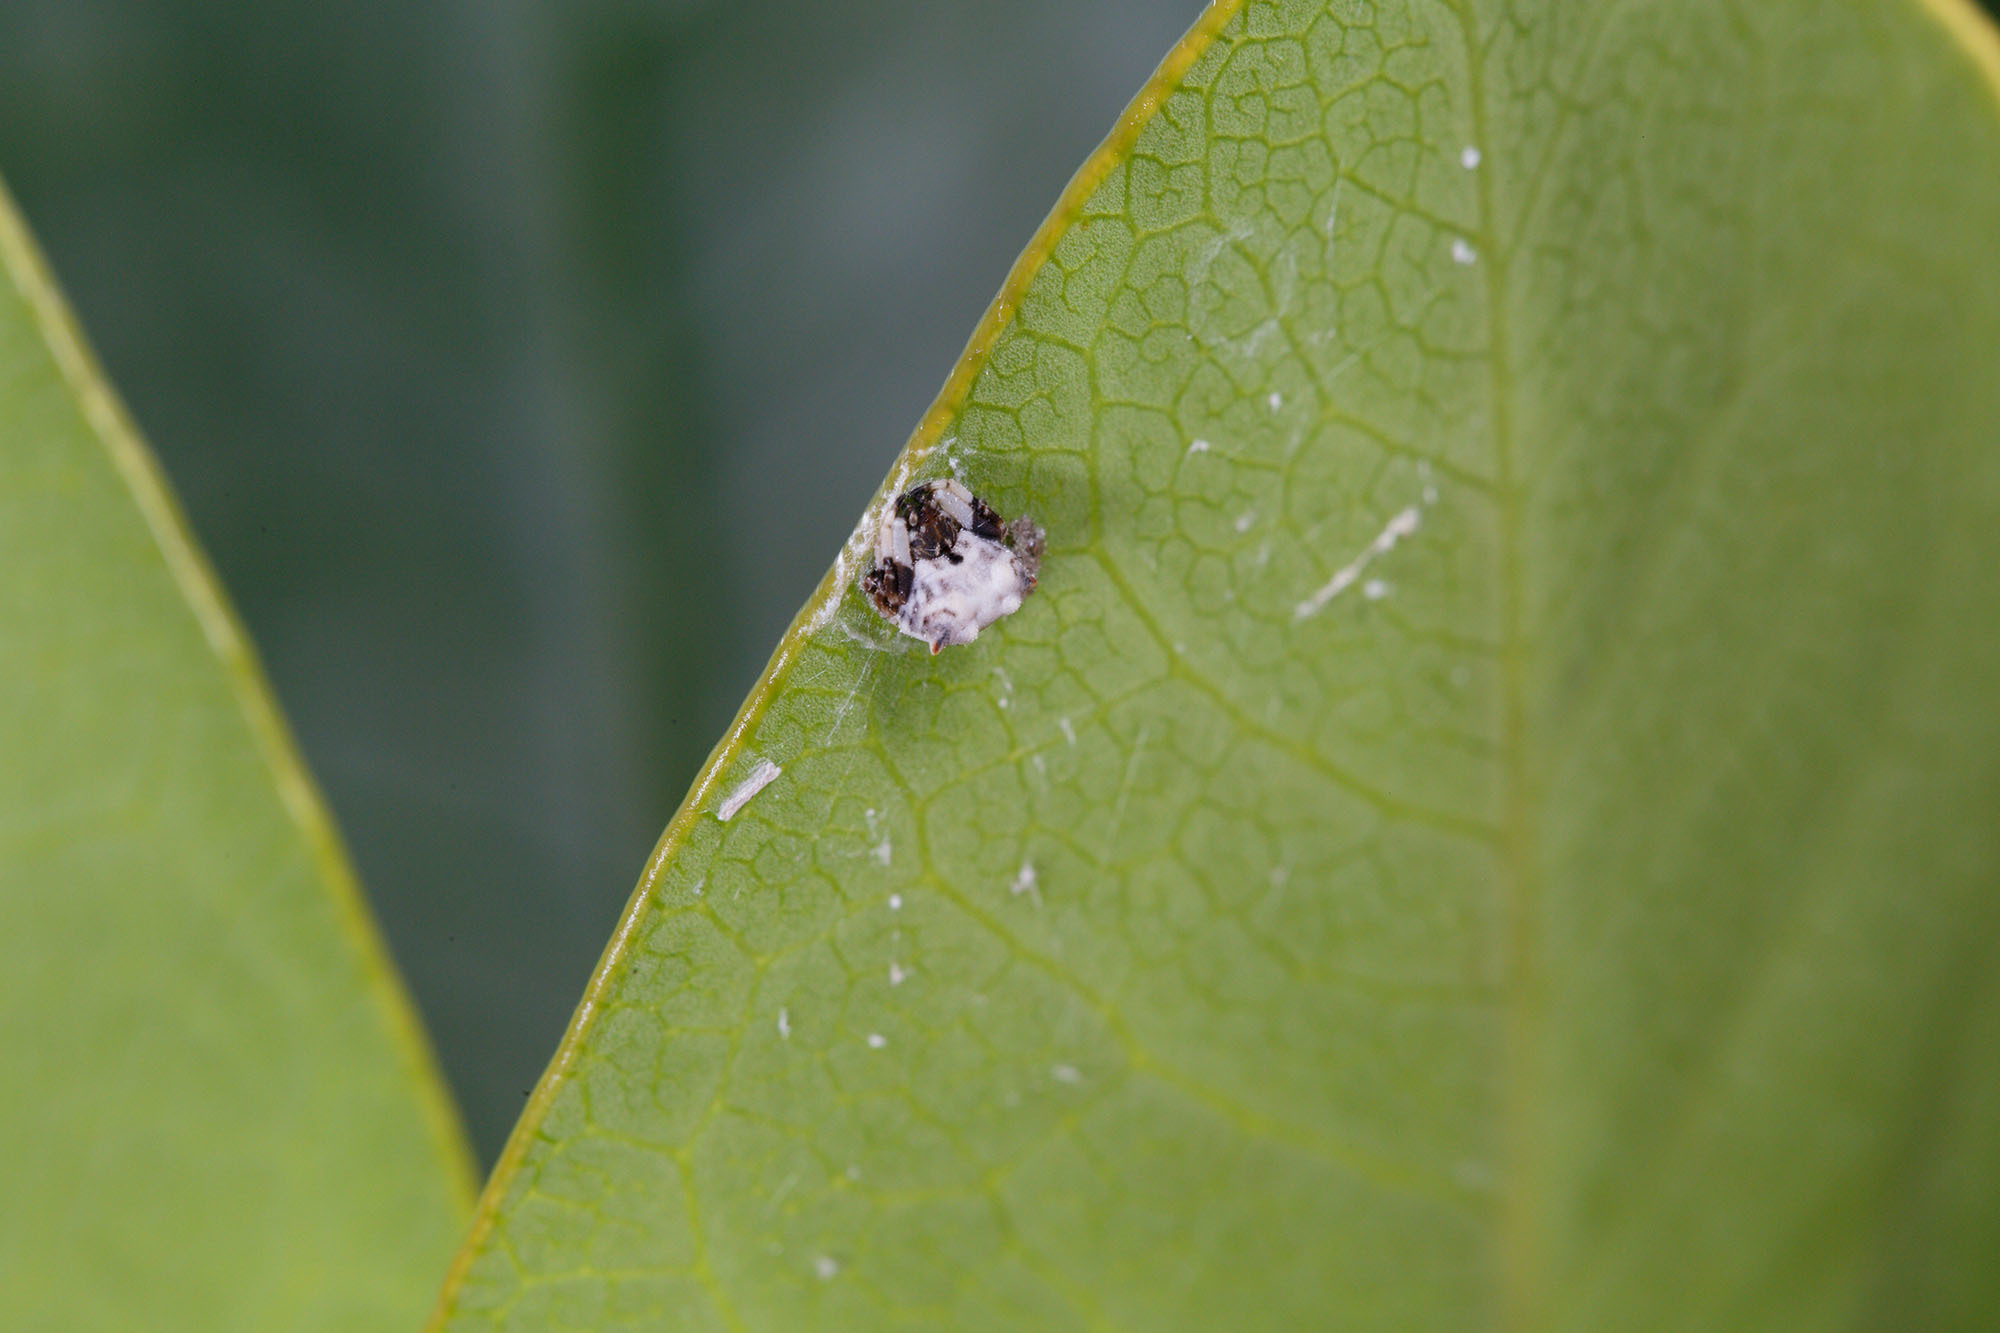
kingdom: Animalia
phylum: Arthropoda
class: Arachnida
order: Araneae
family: Araneidae
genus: Celaenia
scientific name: Celaenia excavata
